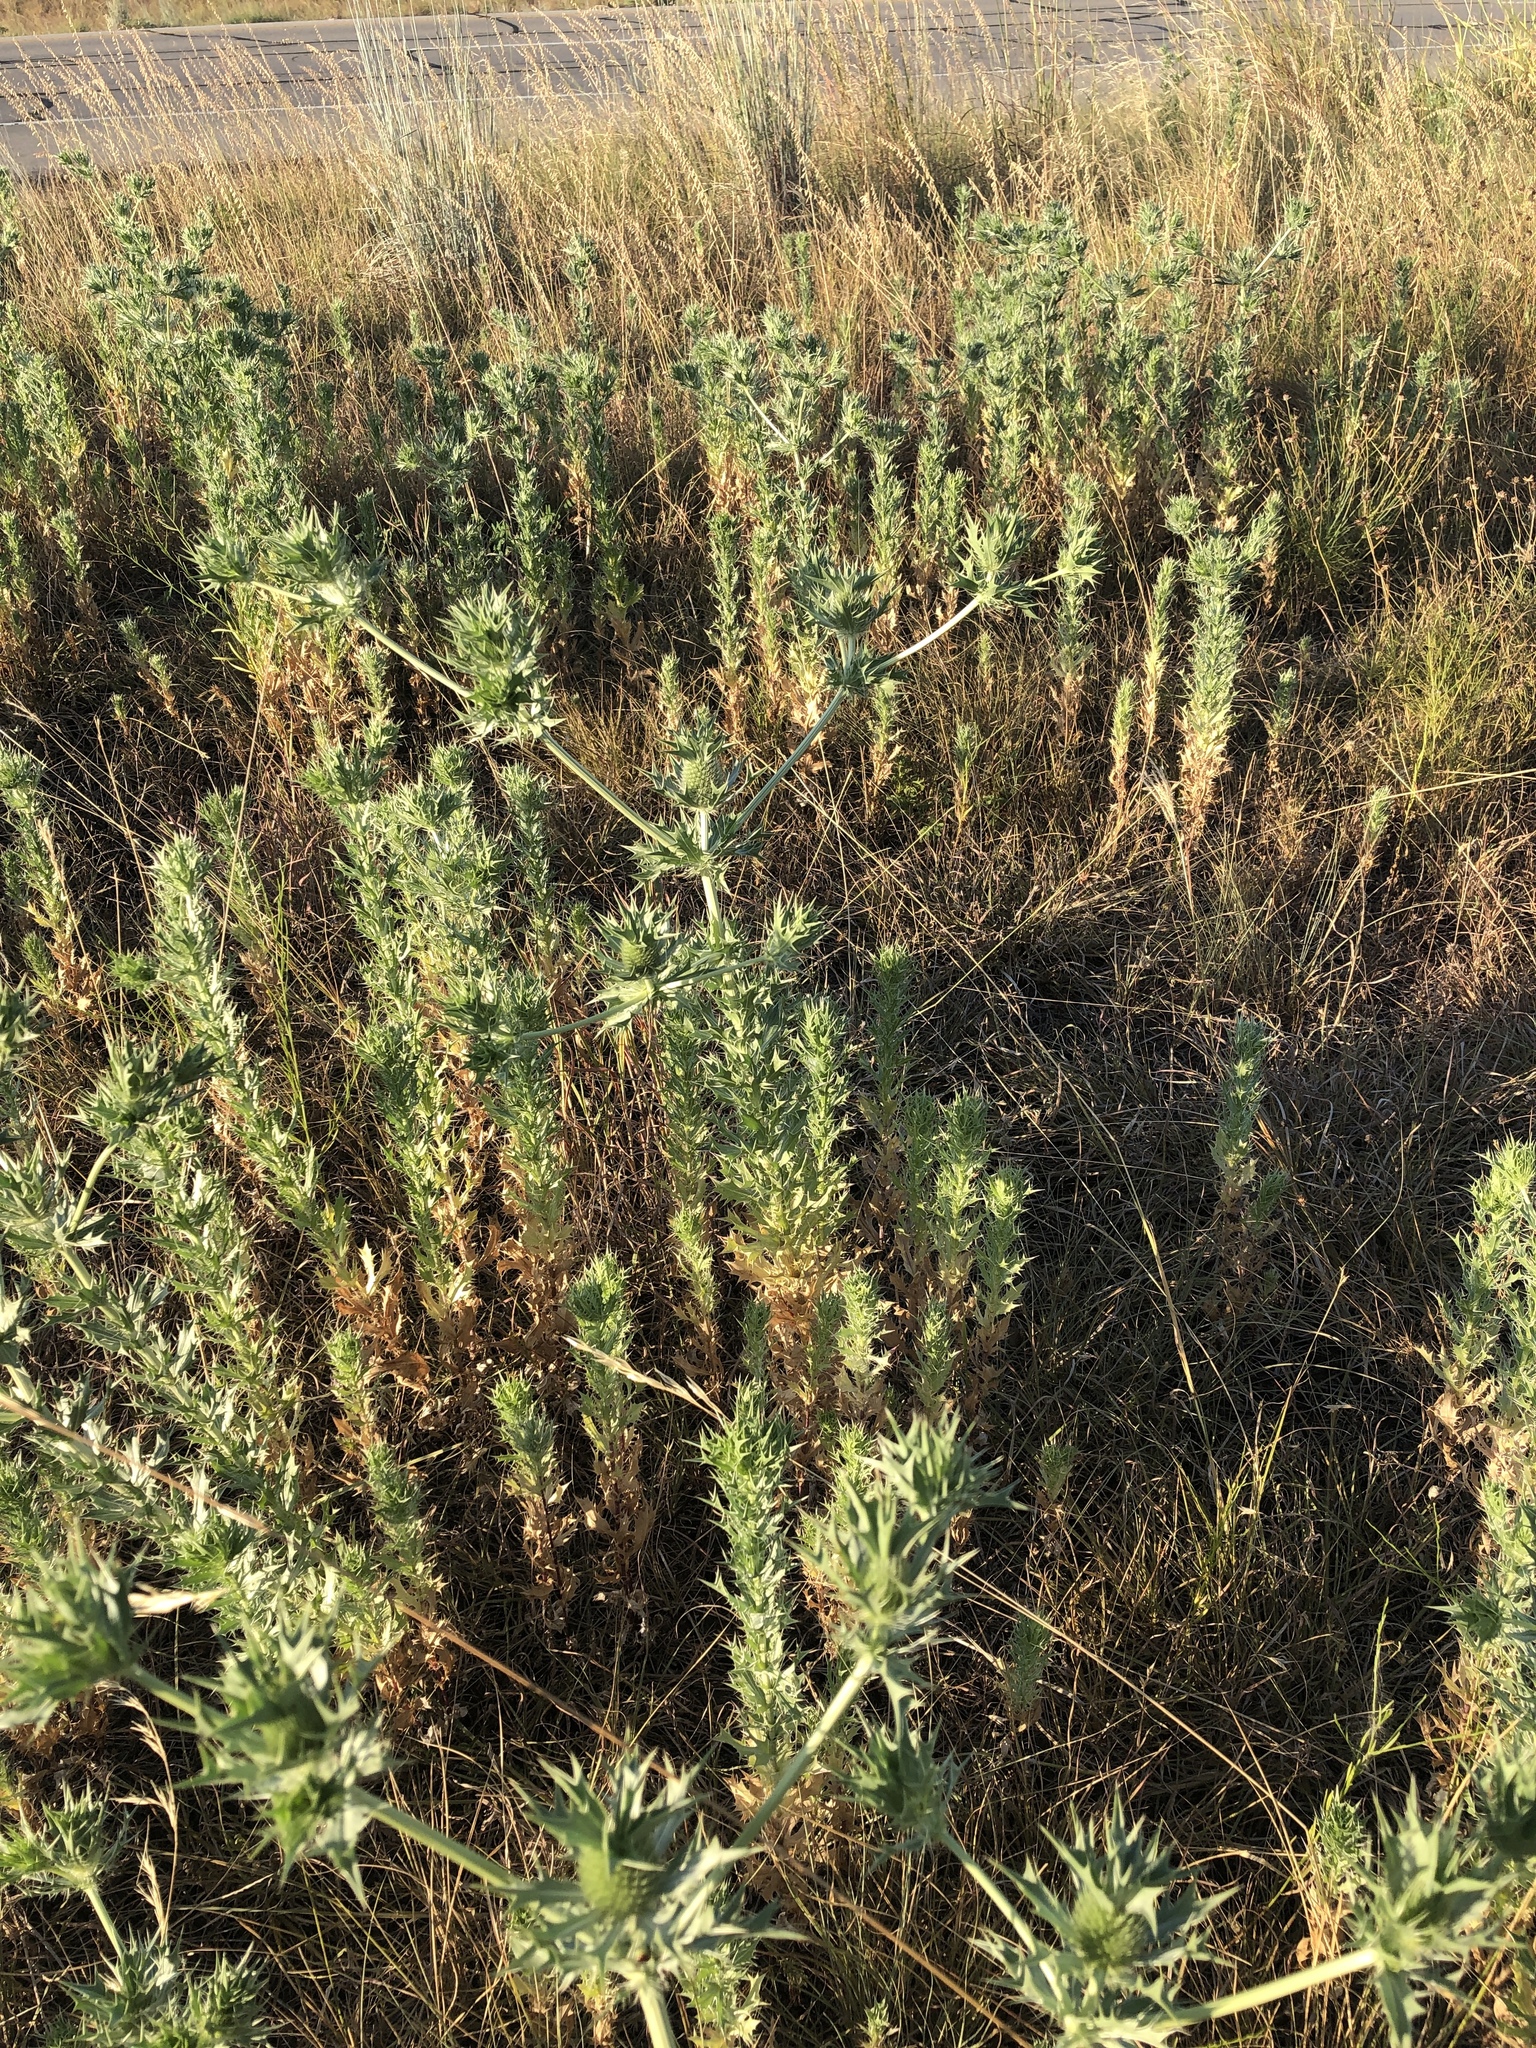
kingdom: Plantae
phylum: Tracheophyta
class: Magnoliopsida
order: Apiales
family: Apiaceae
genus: Eryngium
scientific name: Eryngium leavenworthii
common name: Leavenworth's eryngo
